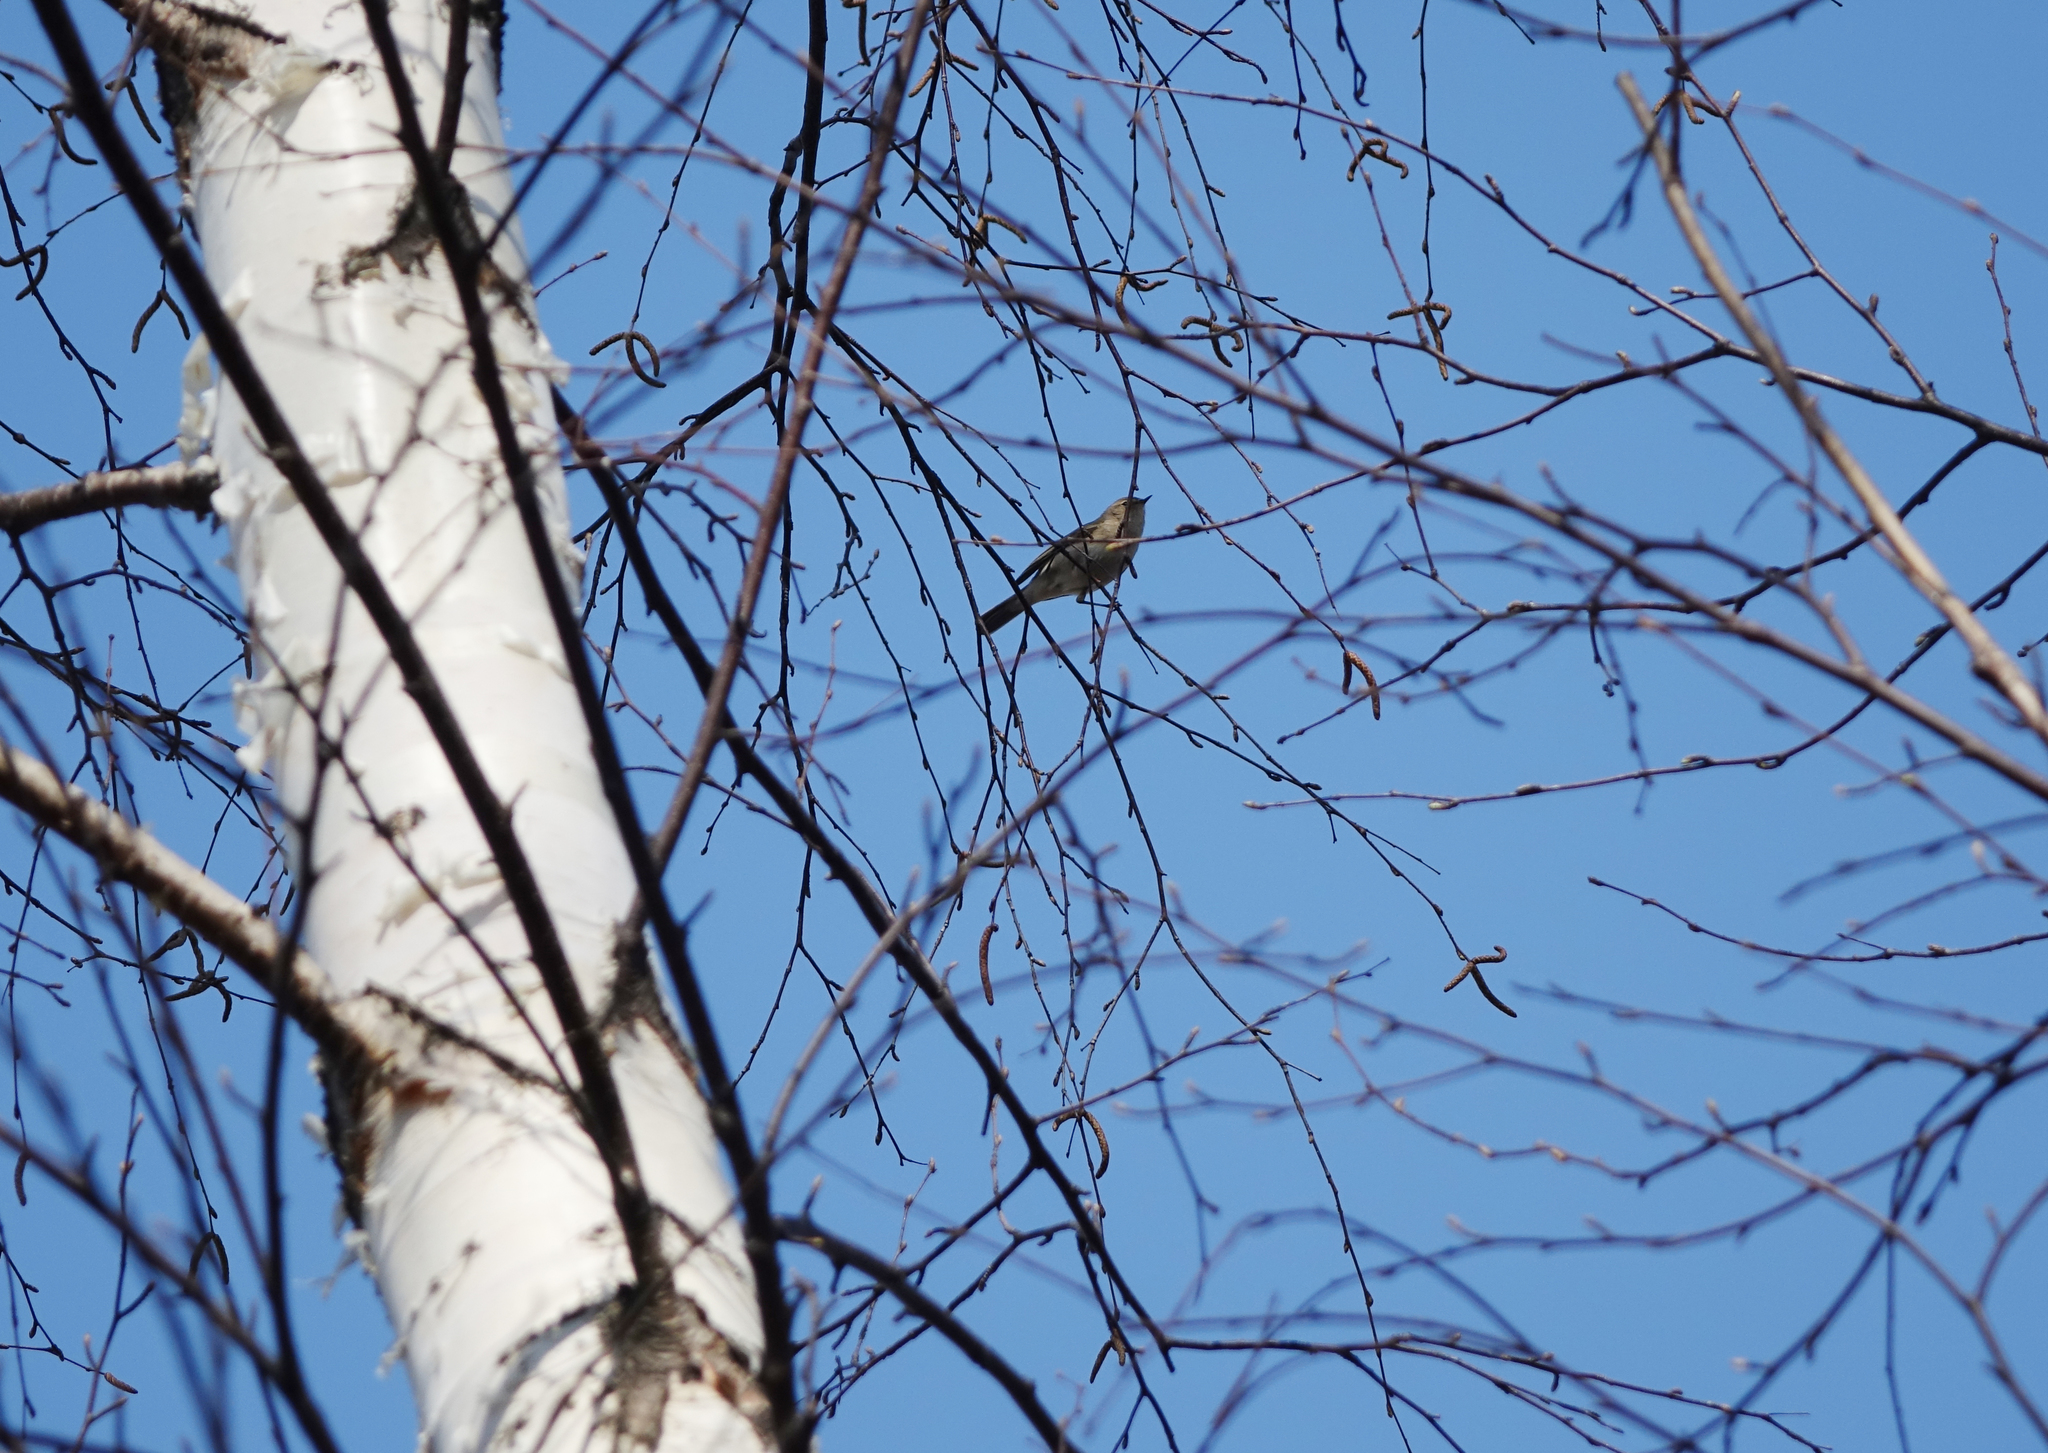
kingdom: Animalia
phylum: Chordata
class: Aves
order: Passeriformes
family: Phylloscopidae
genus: Phylloscopus
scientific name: Phylloscopus collybita
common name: Common chiffchaff
